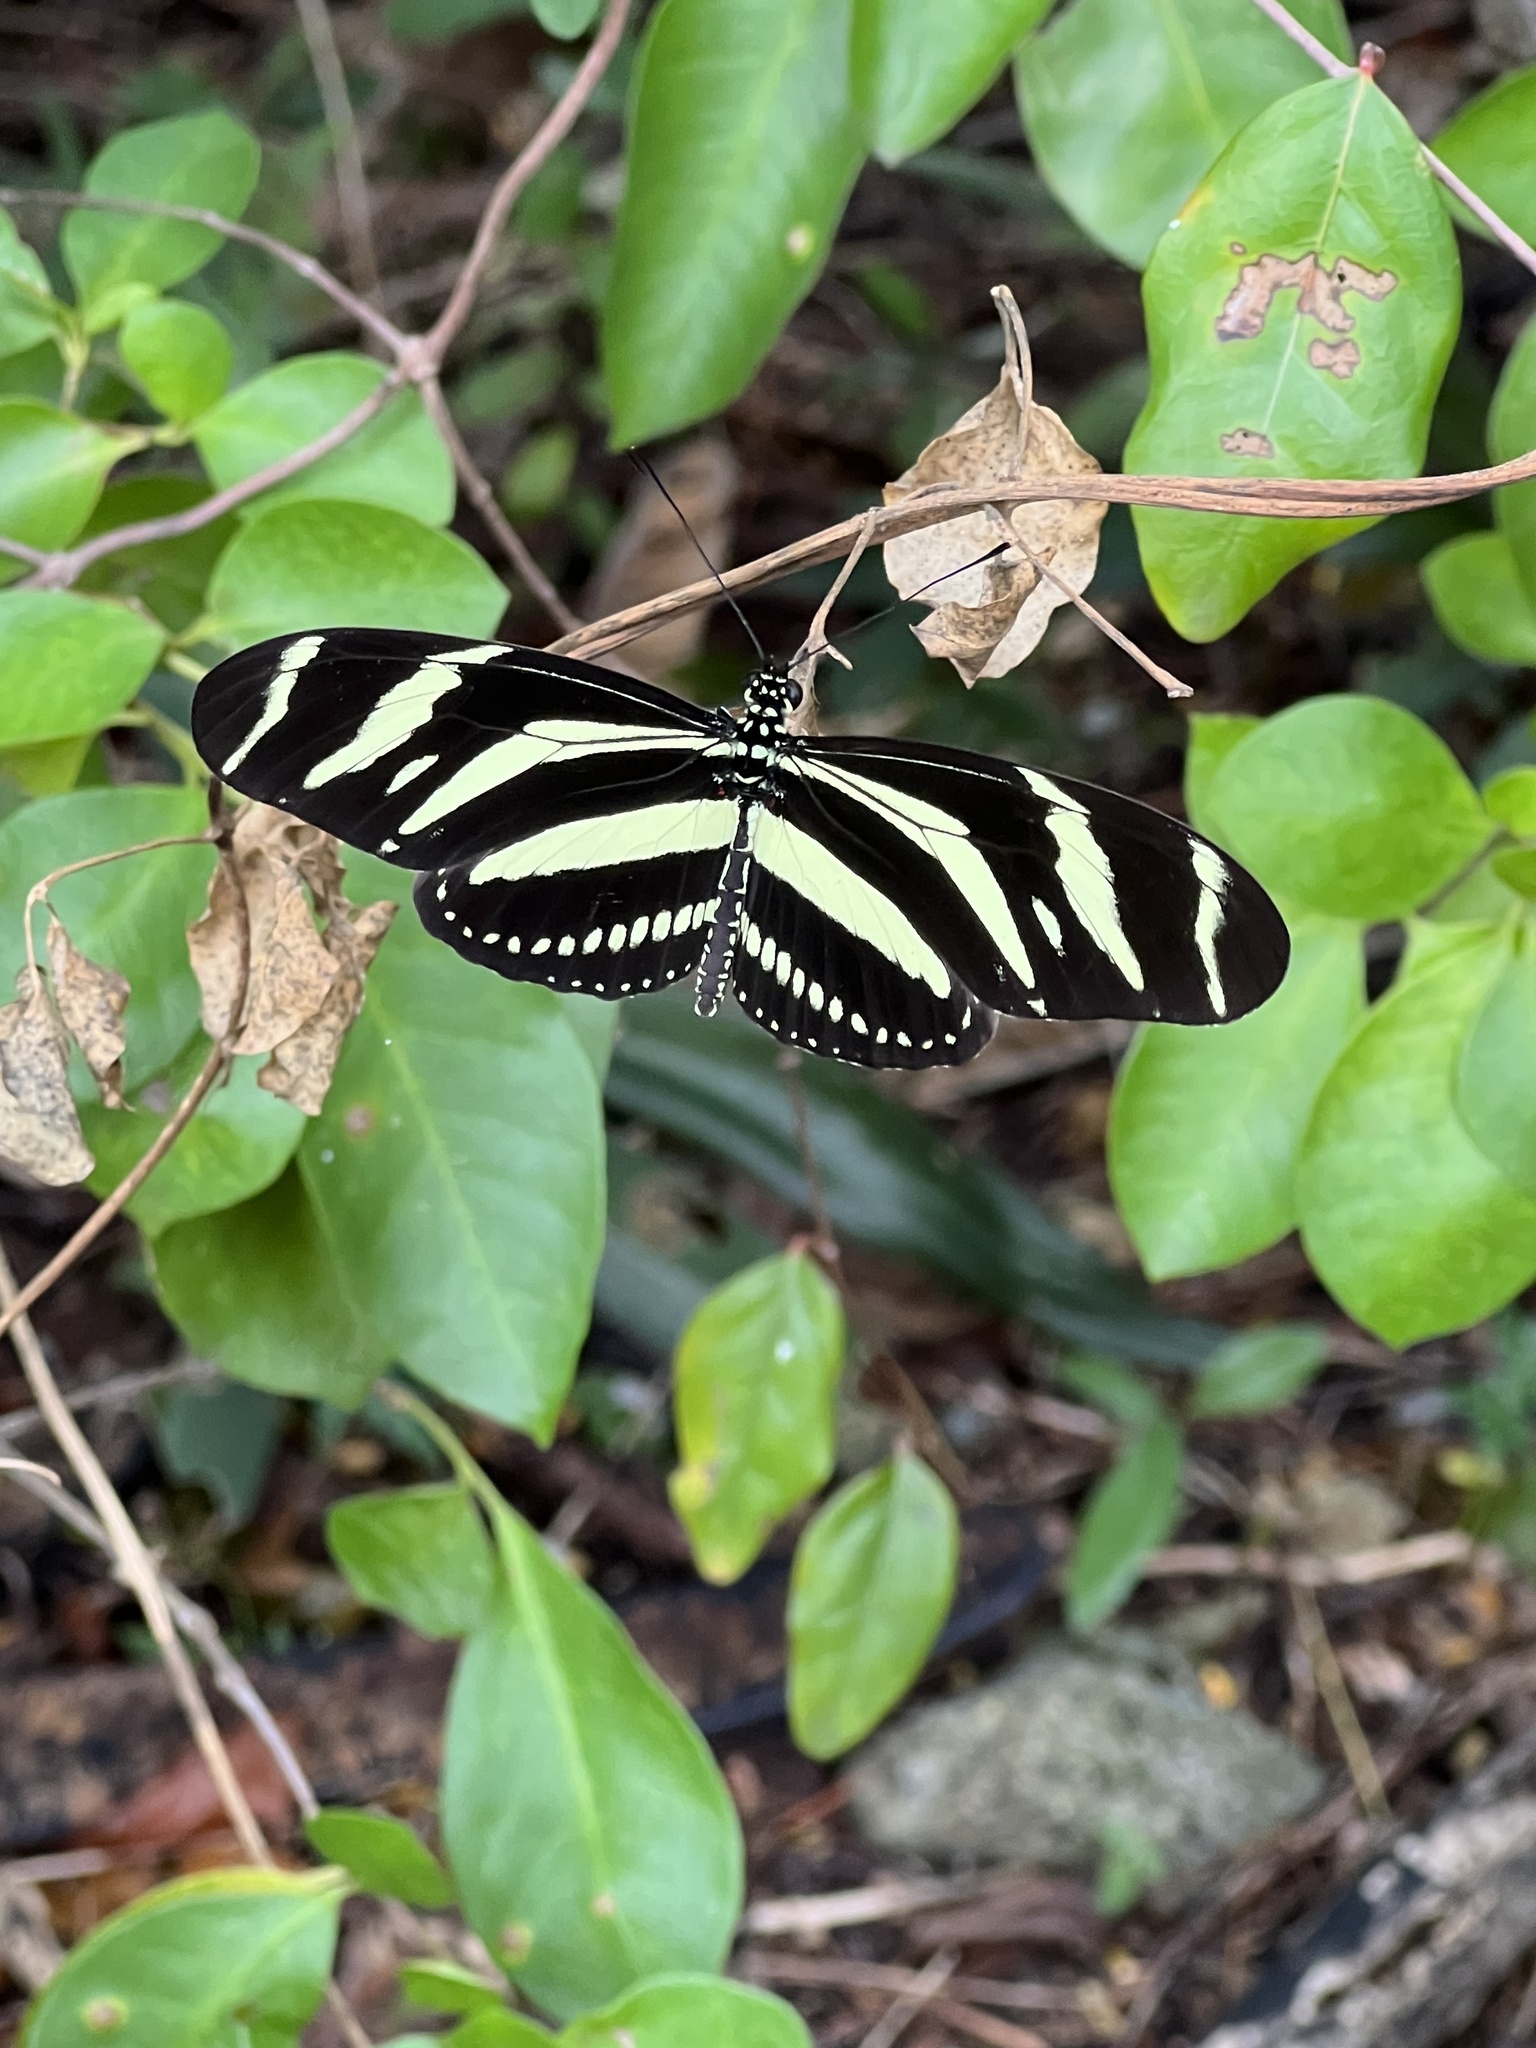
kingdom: Animalia
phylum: Arthropoda
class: Insecta
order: Lepidoptera
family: Nymphalidae
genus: Heliconius
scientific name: Heliconius charithonia
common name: Zebra long wing
